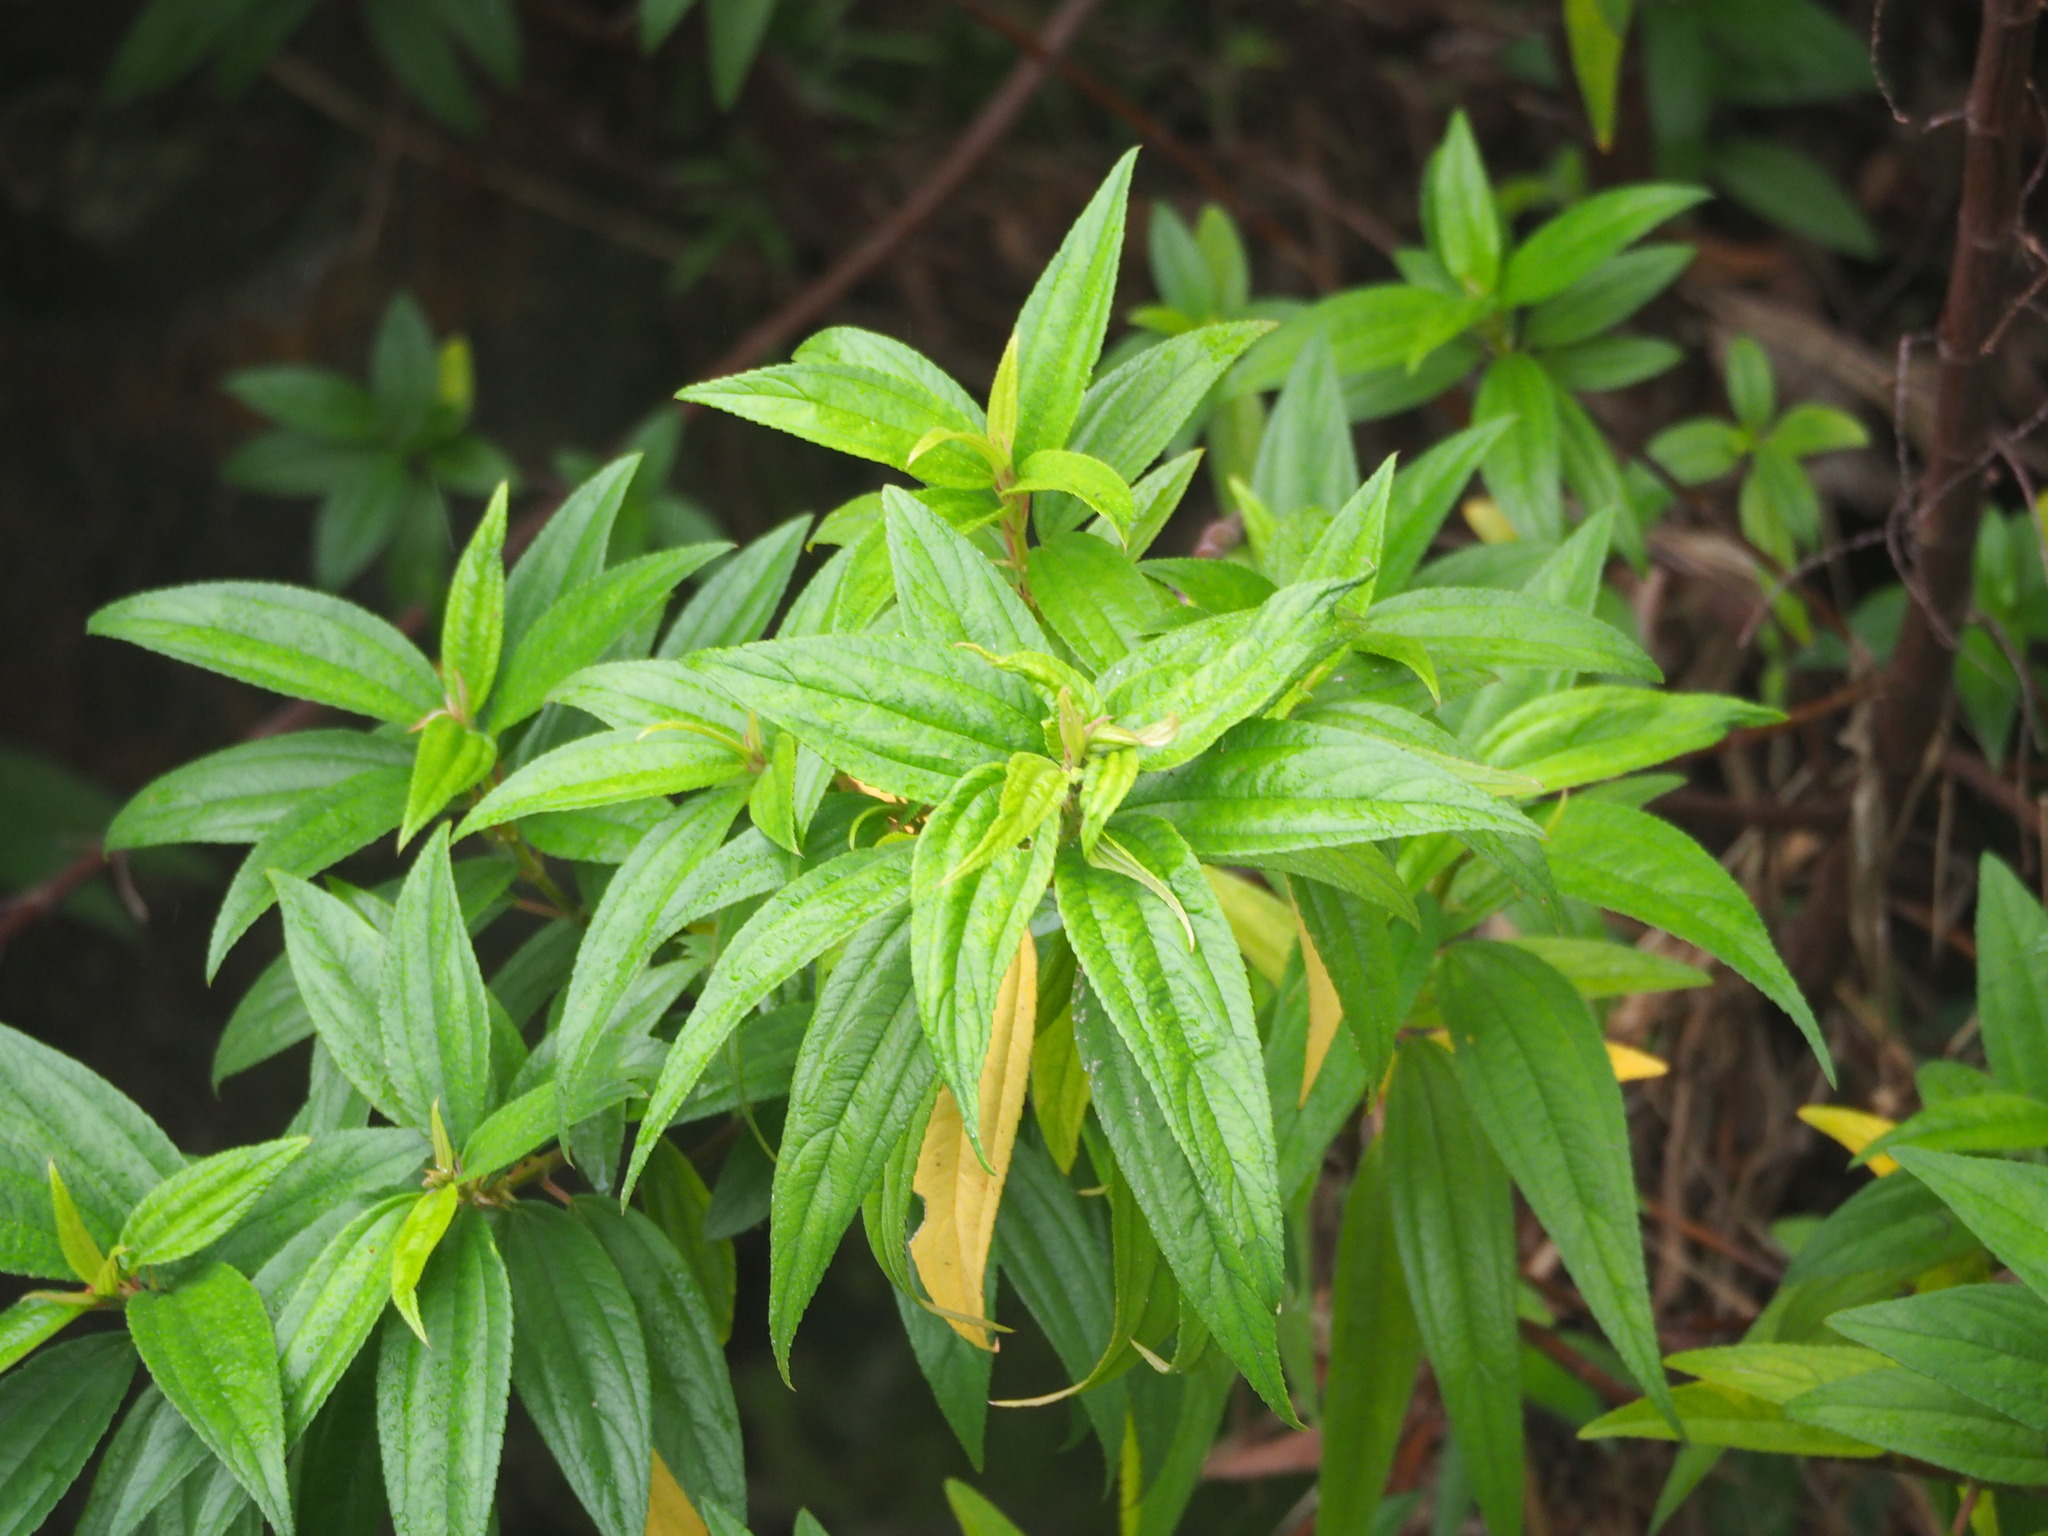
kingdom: Plantae
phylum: Tracheophyta
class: Magnoliopsida
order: Rosales
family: Urticaceae
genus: Boehmeria
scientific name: Boehmeria densiflora
